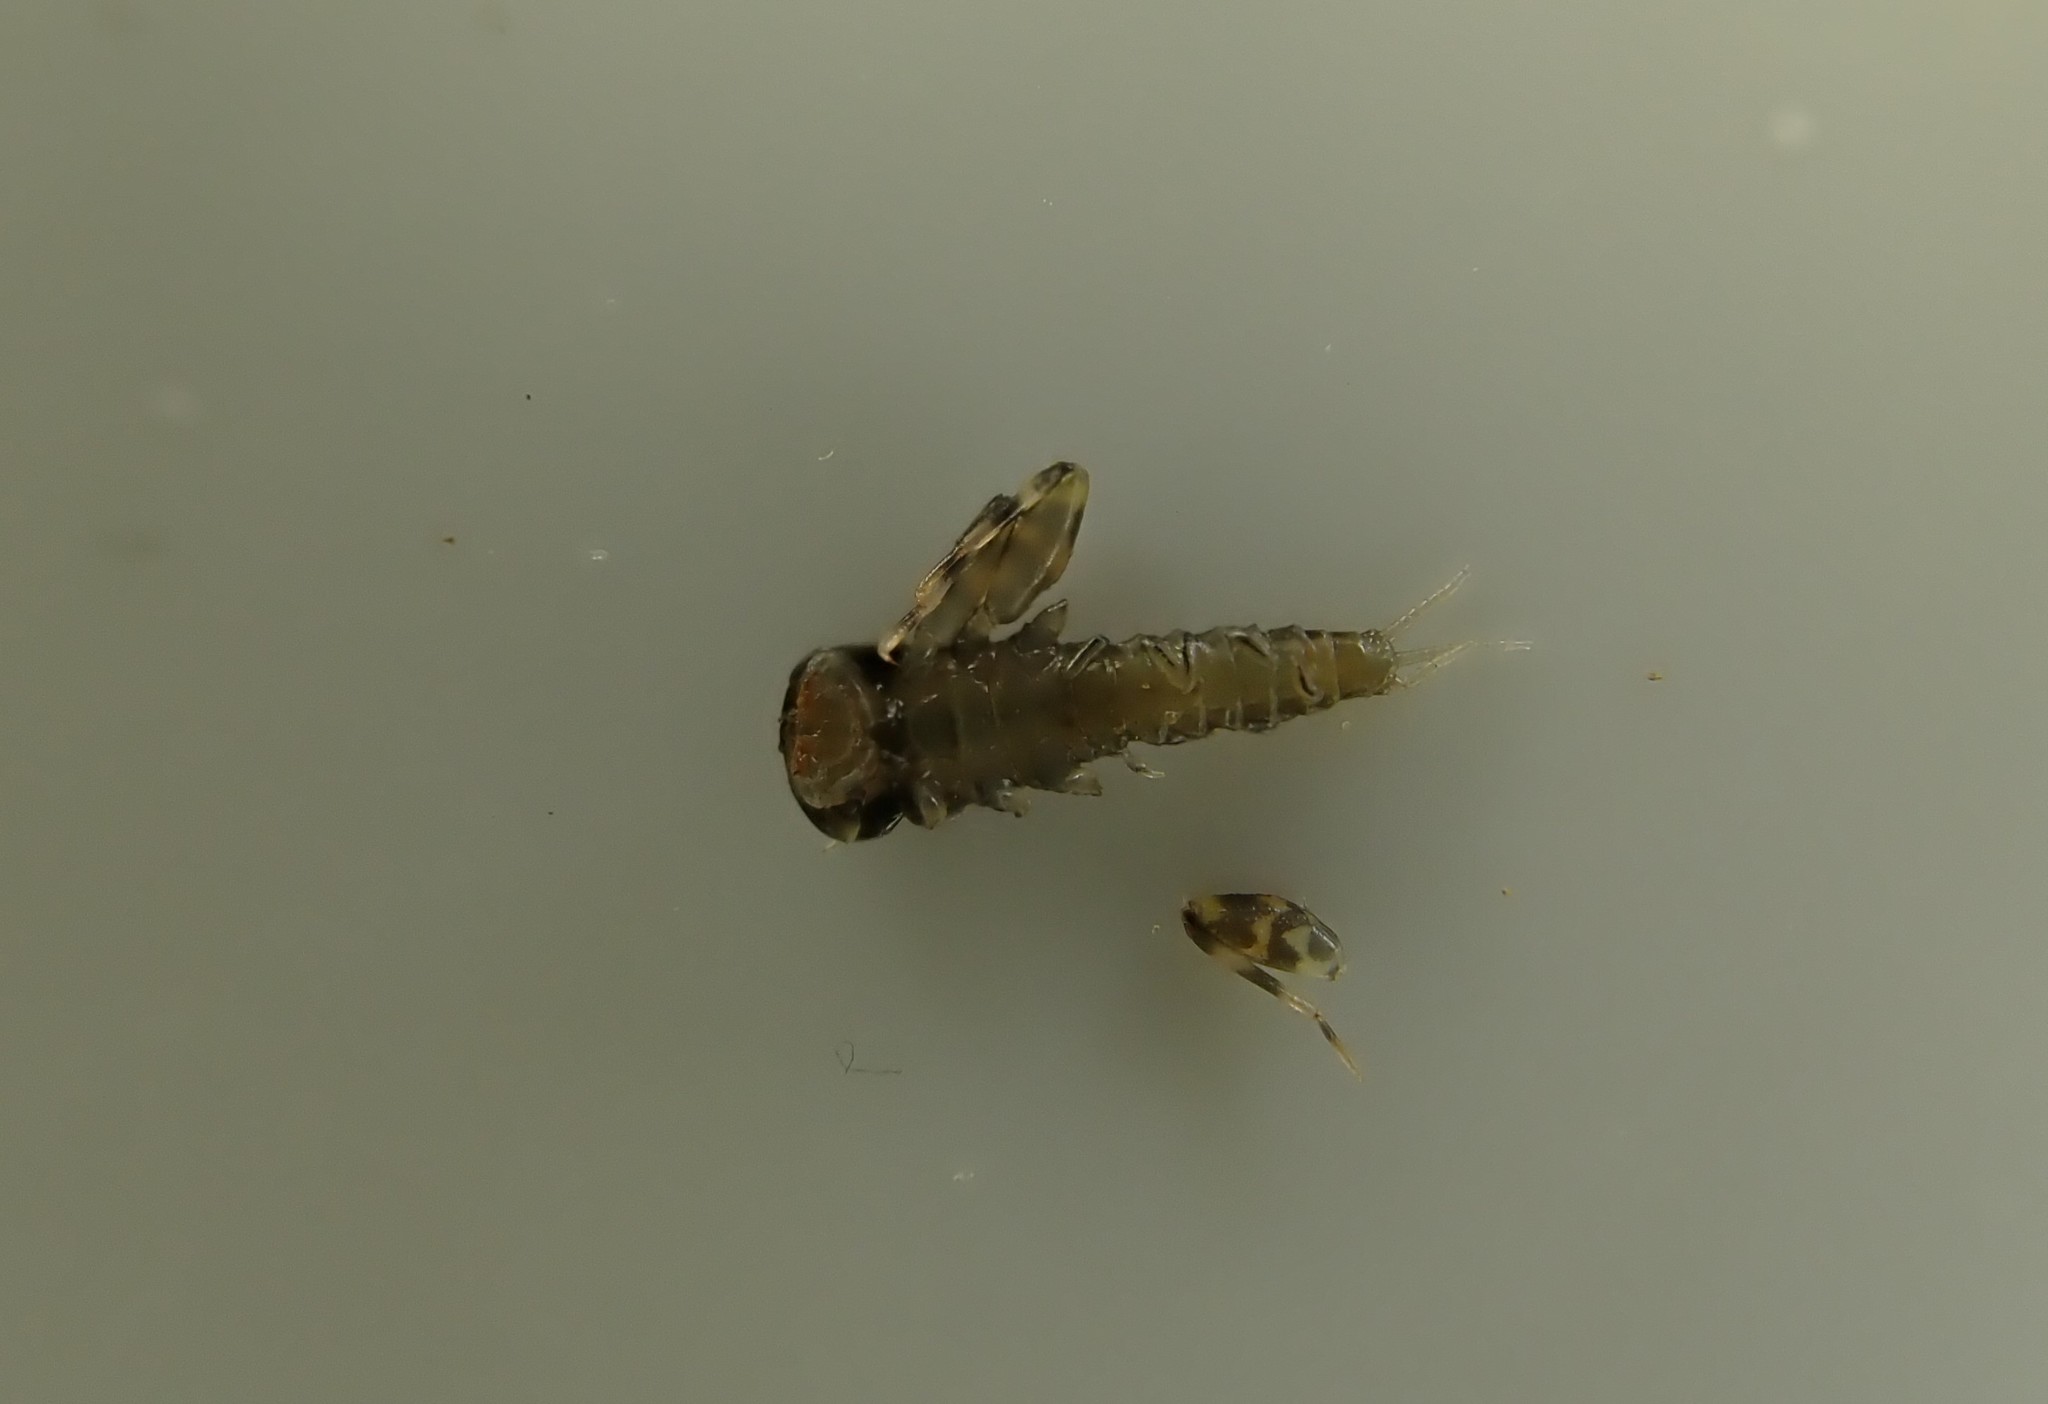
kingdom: Animalia
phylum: Arthropoda
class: Insecta
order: Ephemeroptera
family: Heptageniidae
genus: Heptagenia
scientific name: Heptagenia sulphurea
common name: Yellow may dun
